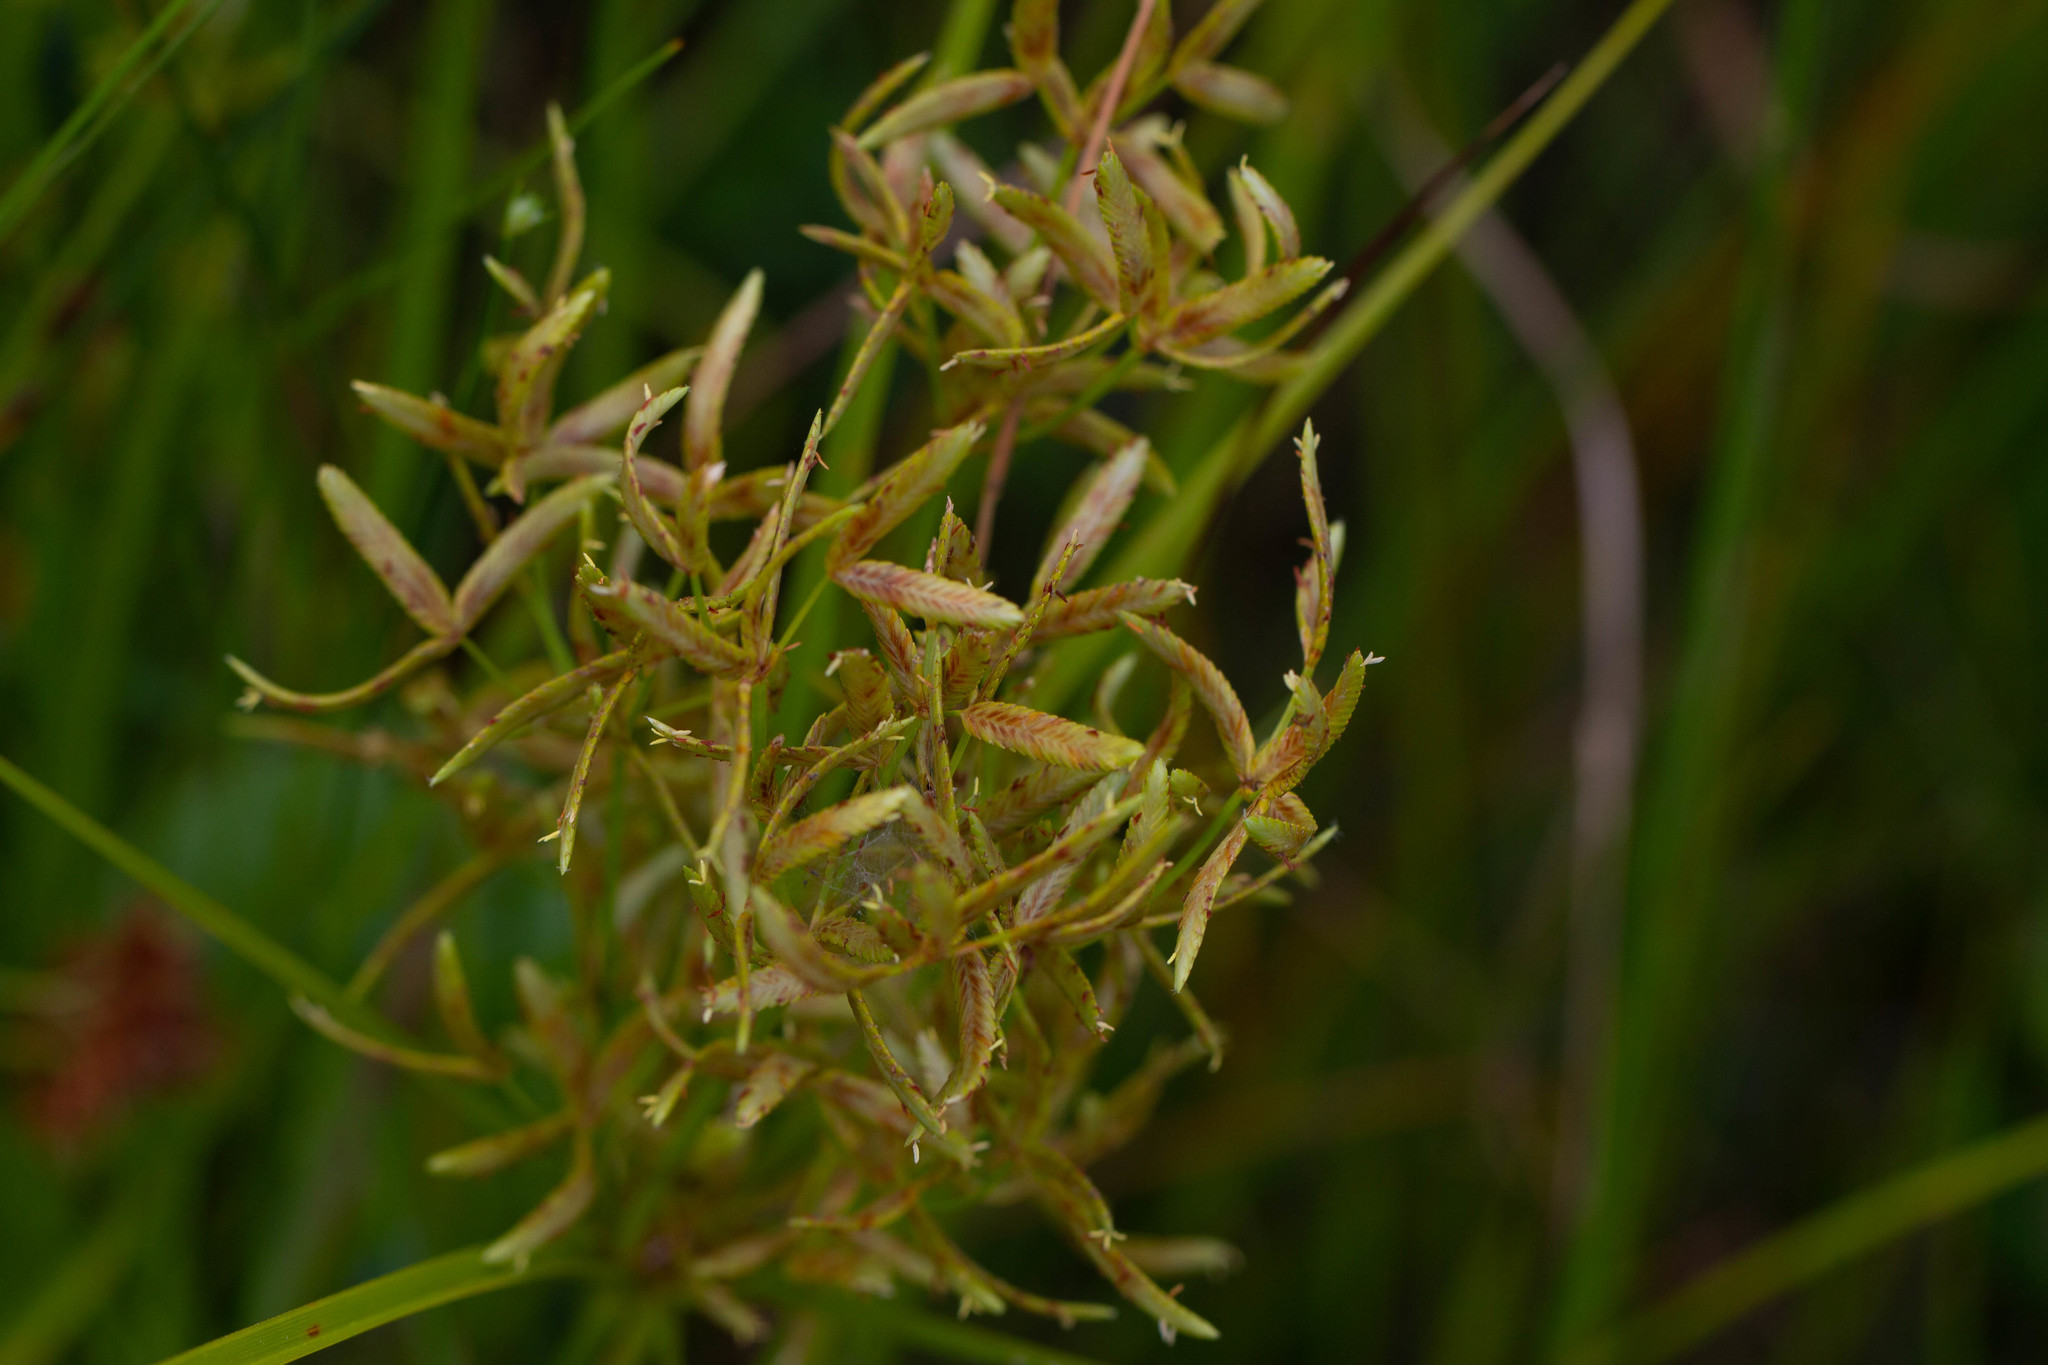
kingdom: Plantae
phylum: Tracheophyta
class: Liliopsida
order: Poales
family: Cyperaceae
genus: Cyperus
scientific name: Cyperus lecontei
